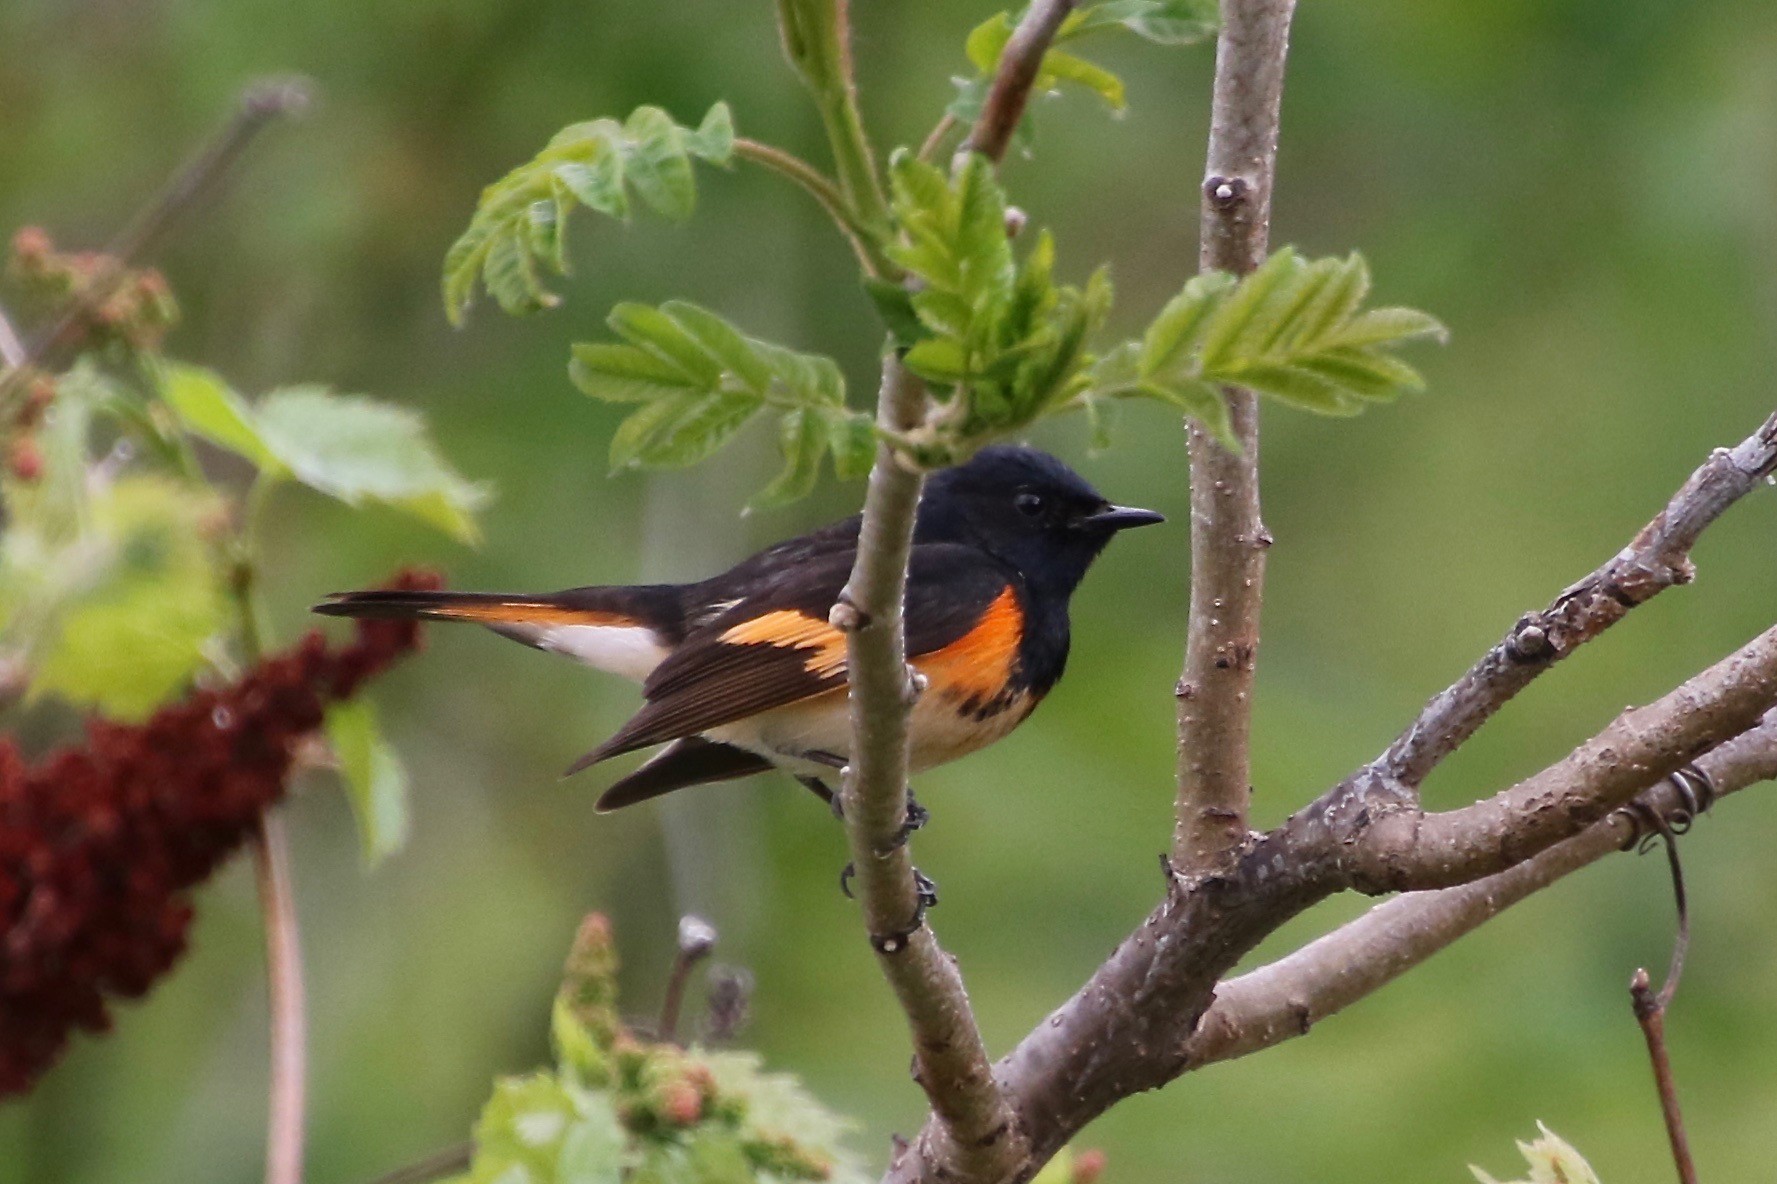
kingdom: Animalia
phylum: Chordata
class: Aves
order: Passeriformes
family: Parulidae
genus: Setophaga
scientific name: Setophaga ruticilla
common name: American redstart
